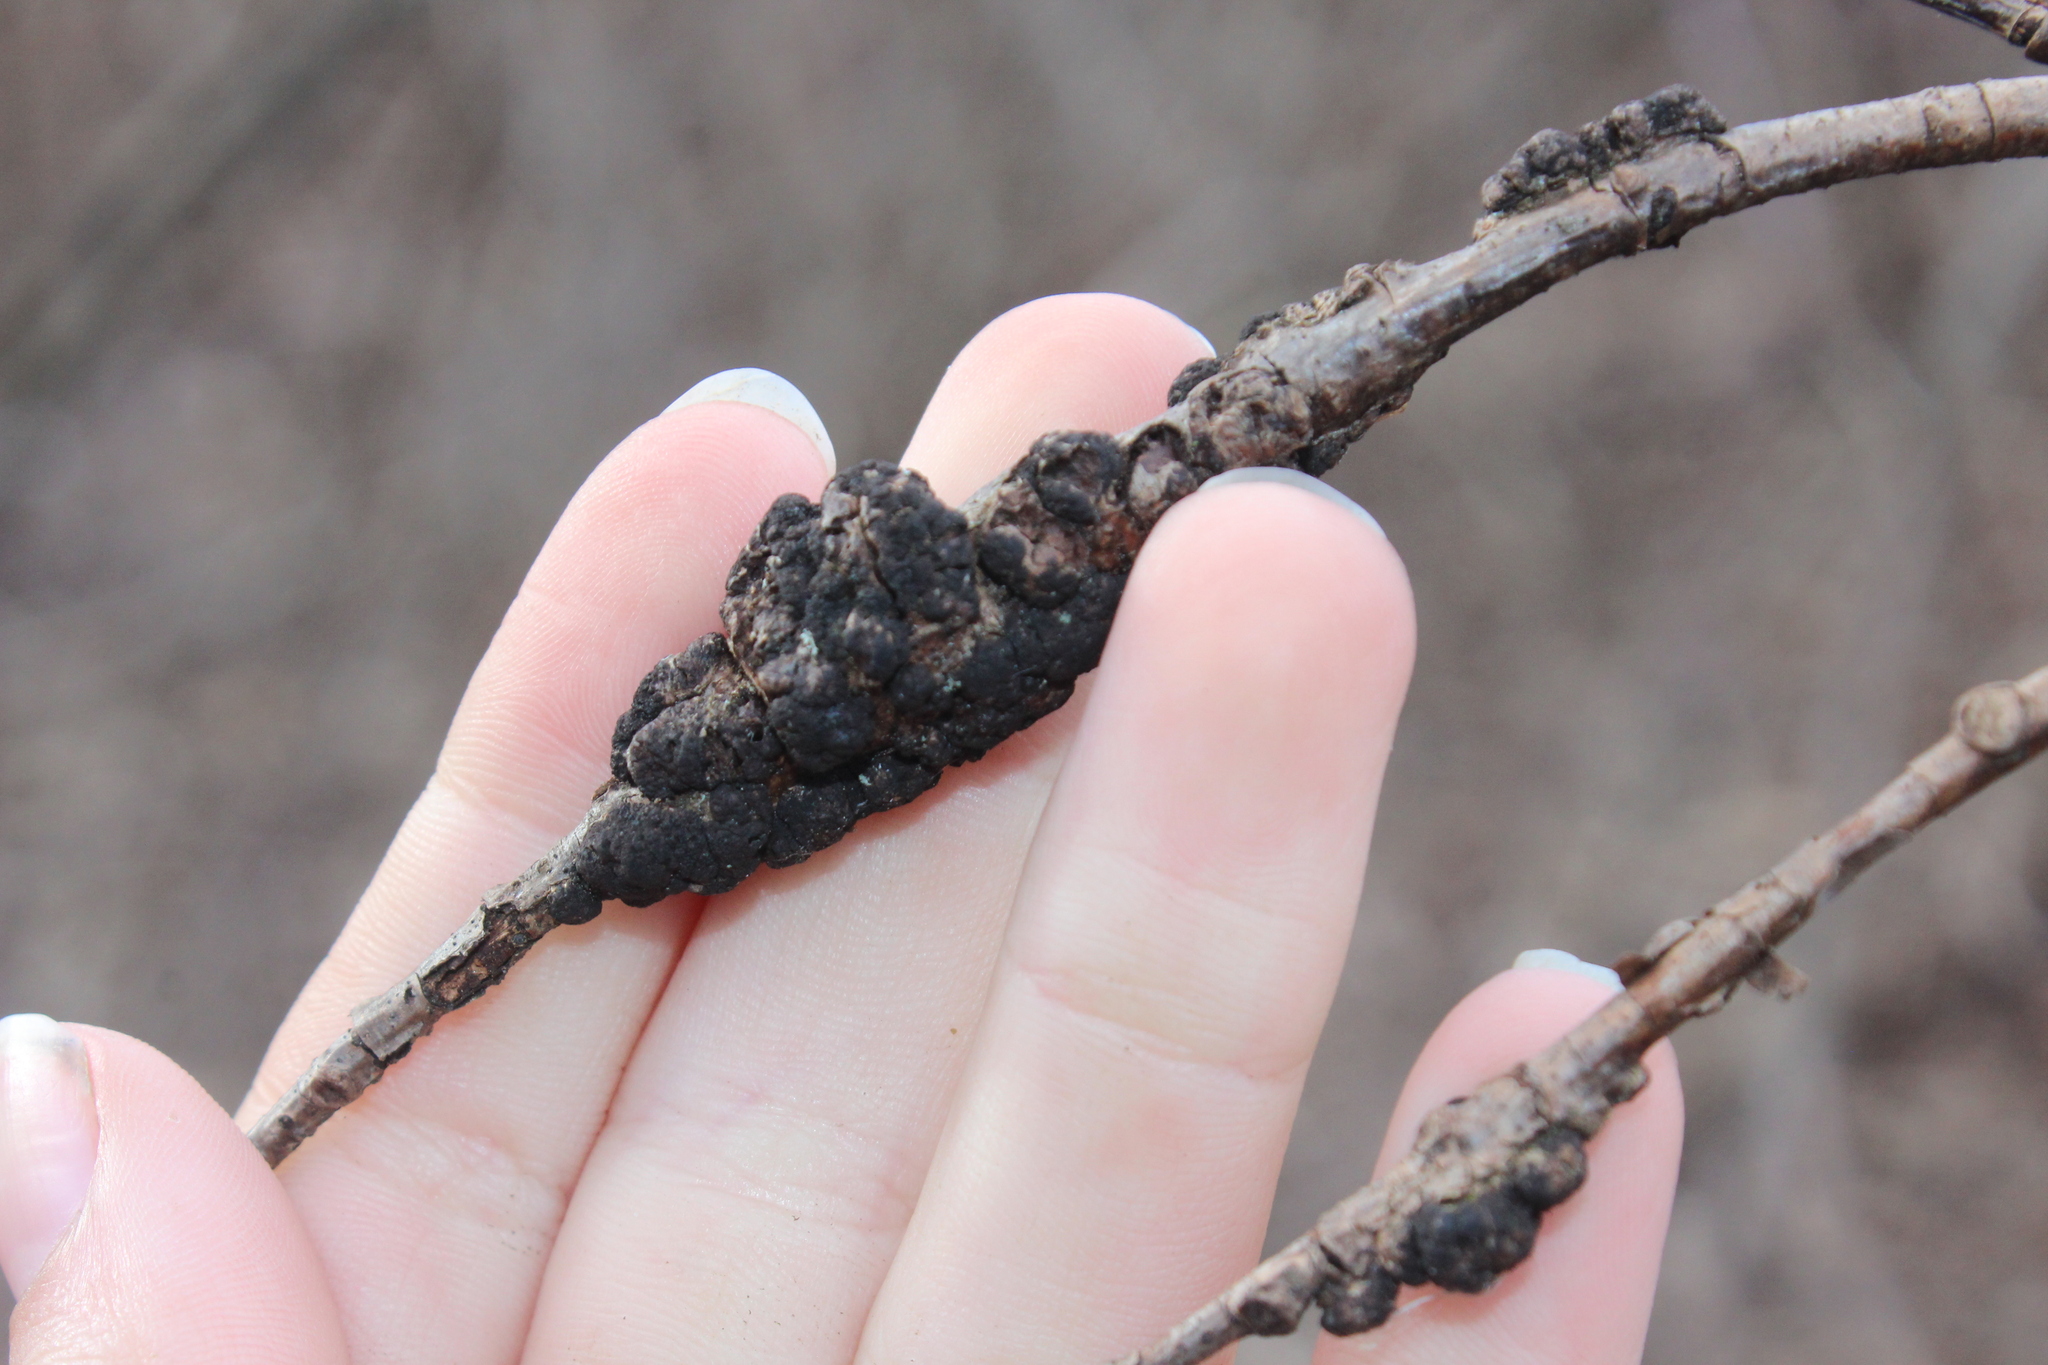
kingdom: Fungi
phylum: Ascomycota
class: Dothideomycetes
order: Venturiales
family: Venturiaceae
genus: Apiosporina
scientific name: Apiosporina morbosa
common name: Black knot
